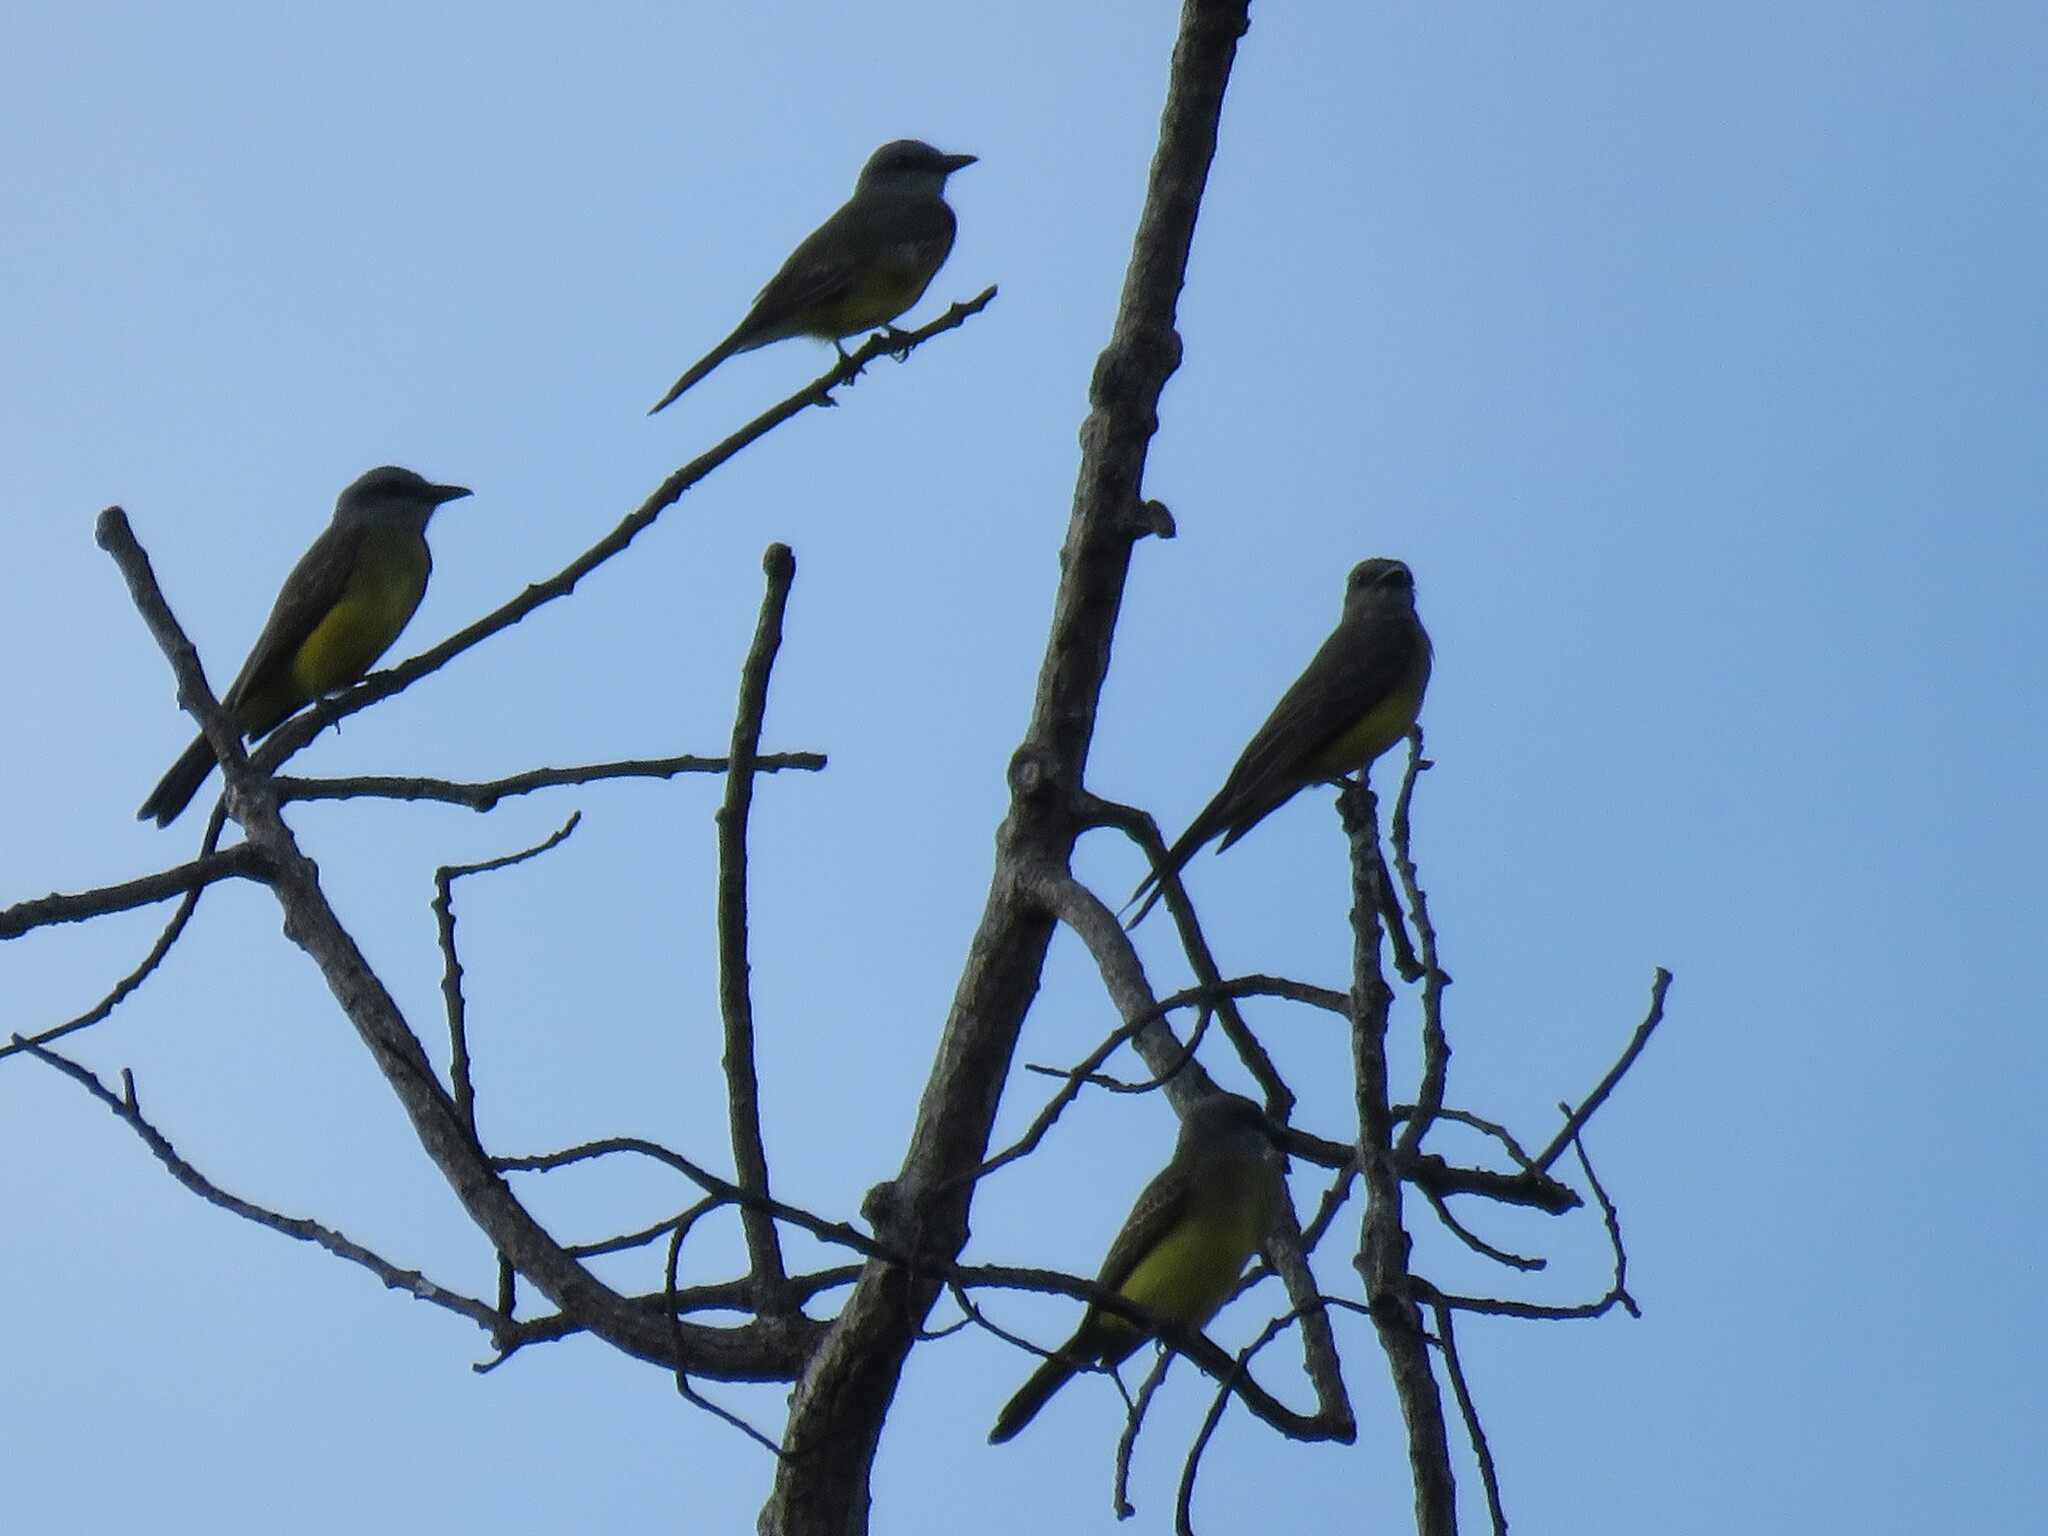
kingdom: Animalia
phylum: Chordata
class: Aves
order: Passeriformes
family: Tyrannidae
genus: Tyrannus
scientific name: Tyrannus melancholicus
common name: Tropical kingbird
